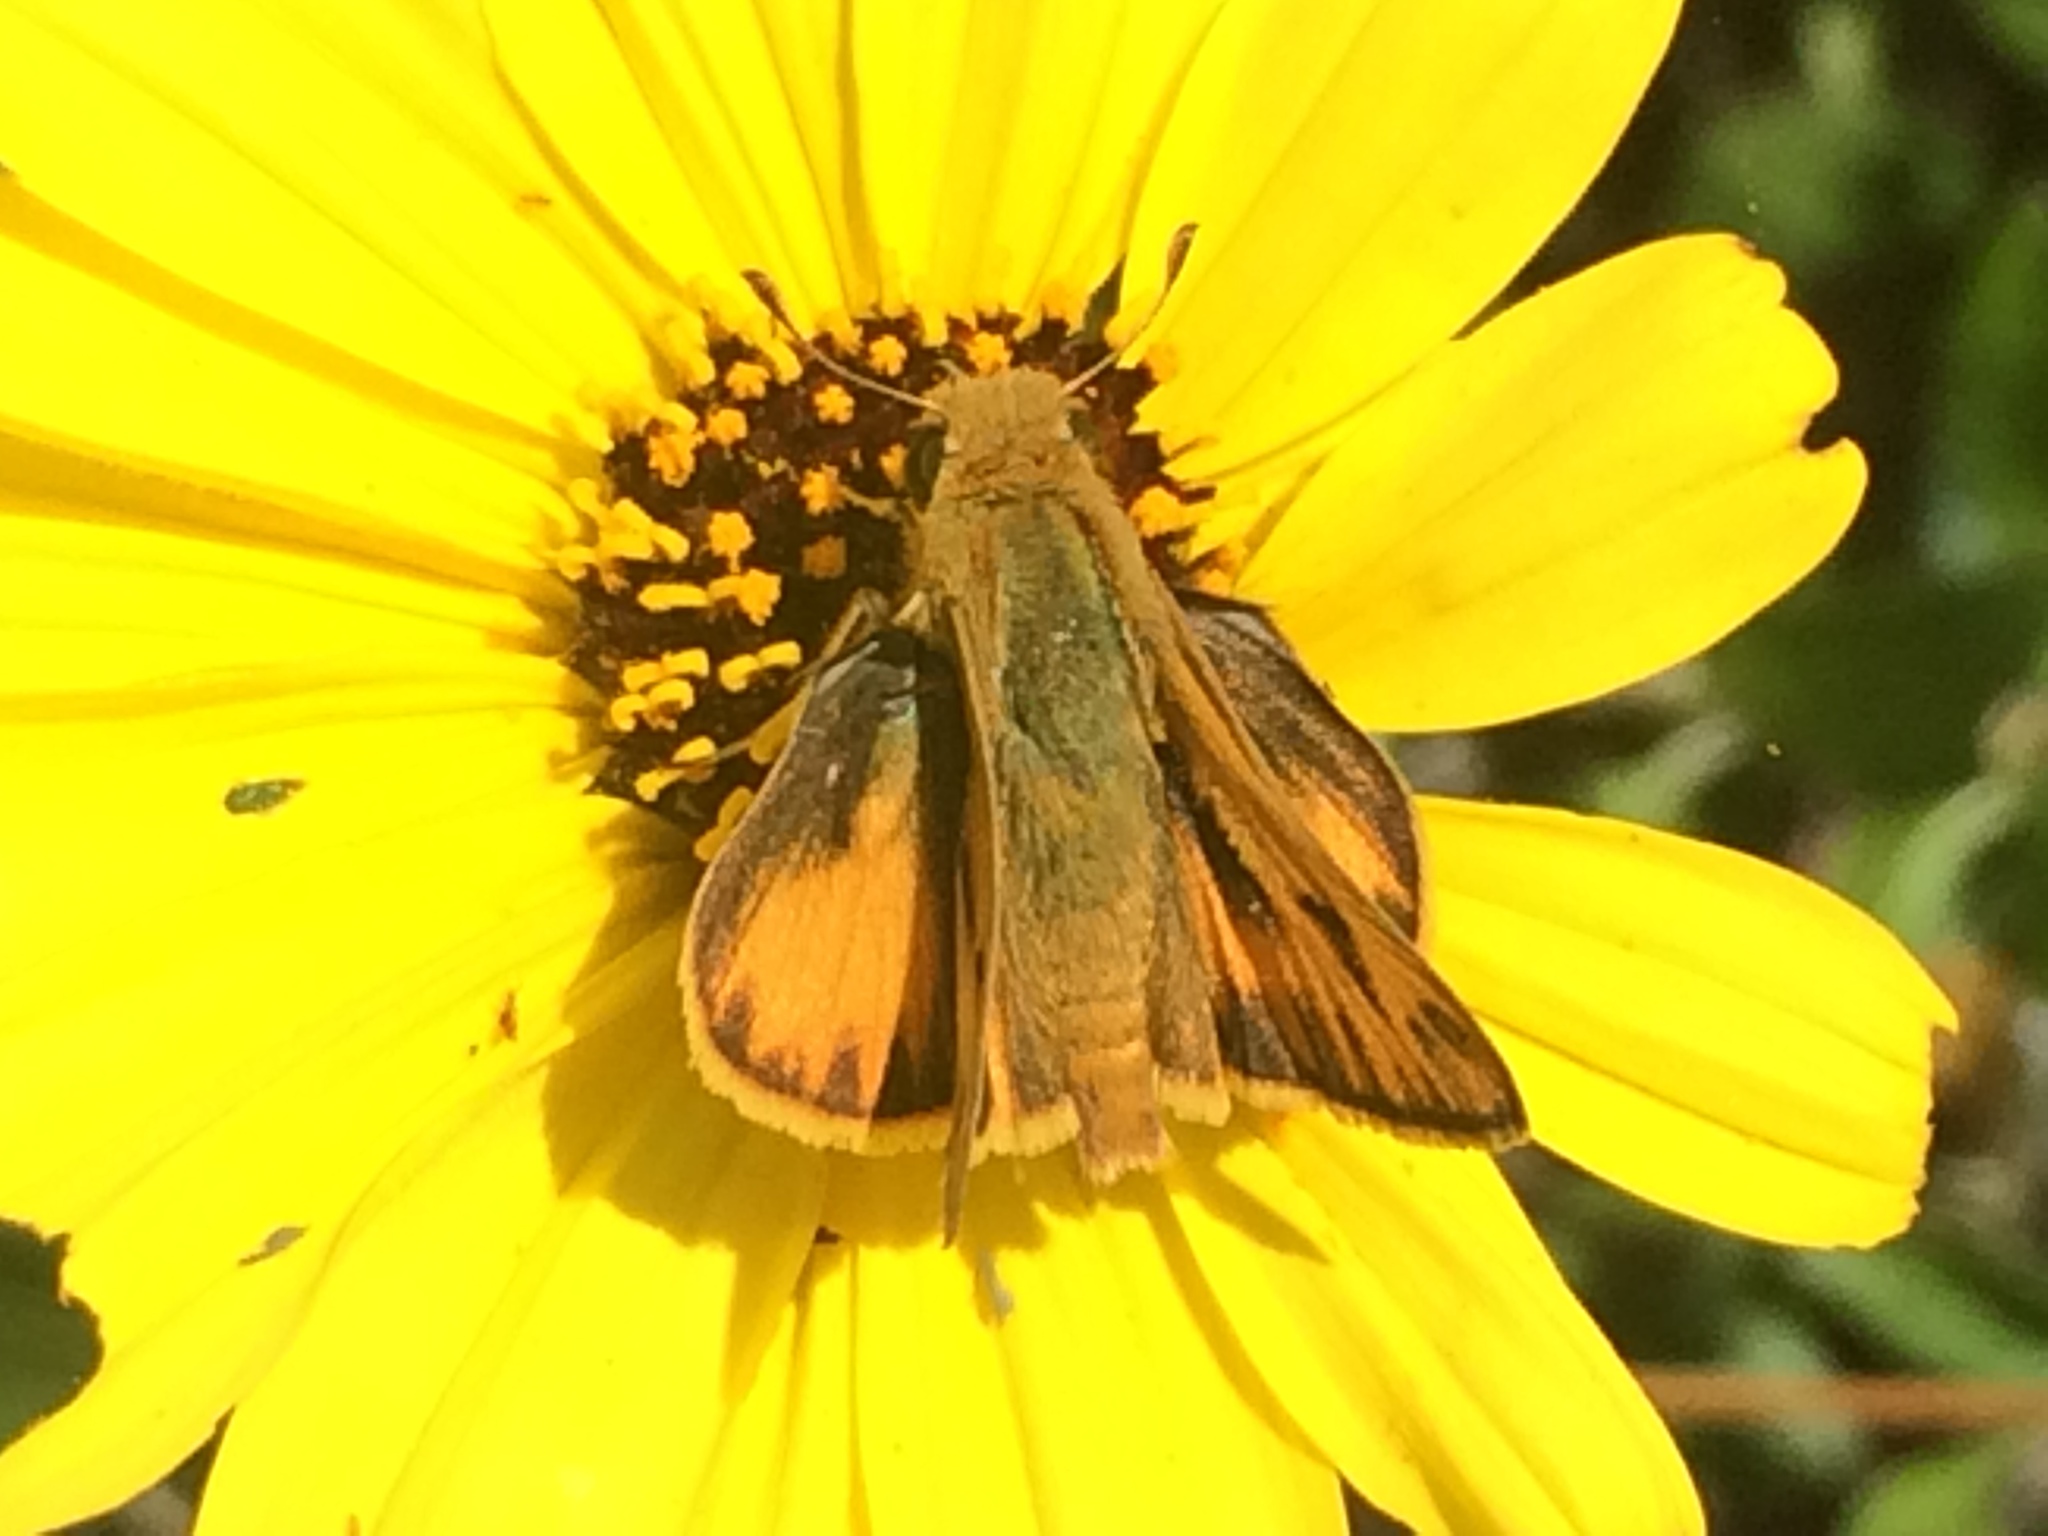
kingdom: Animalia
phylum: Arthropoda
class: Insecta
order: Lepidoptera
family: Hesperiidae
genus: Hylephila
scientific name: Hylephila phyleus
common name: Fiery skipper
